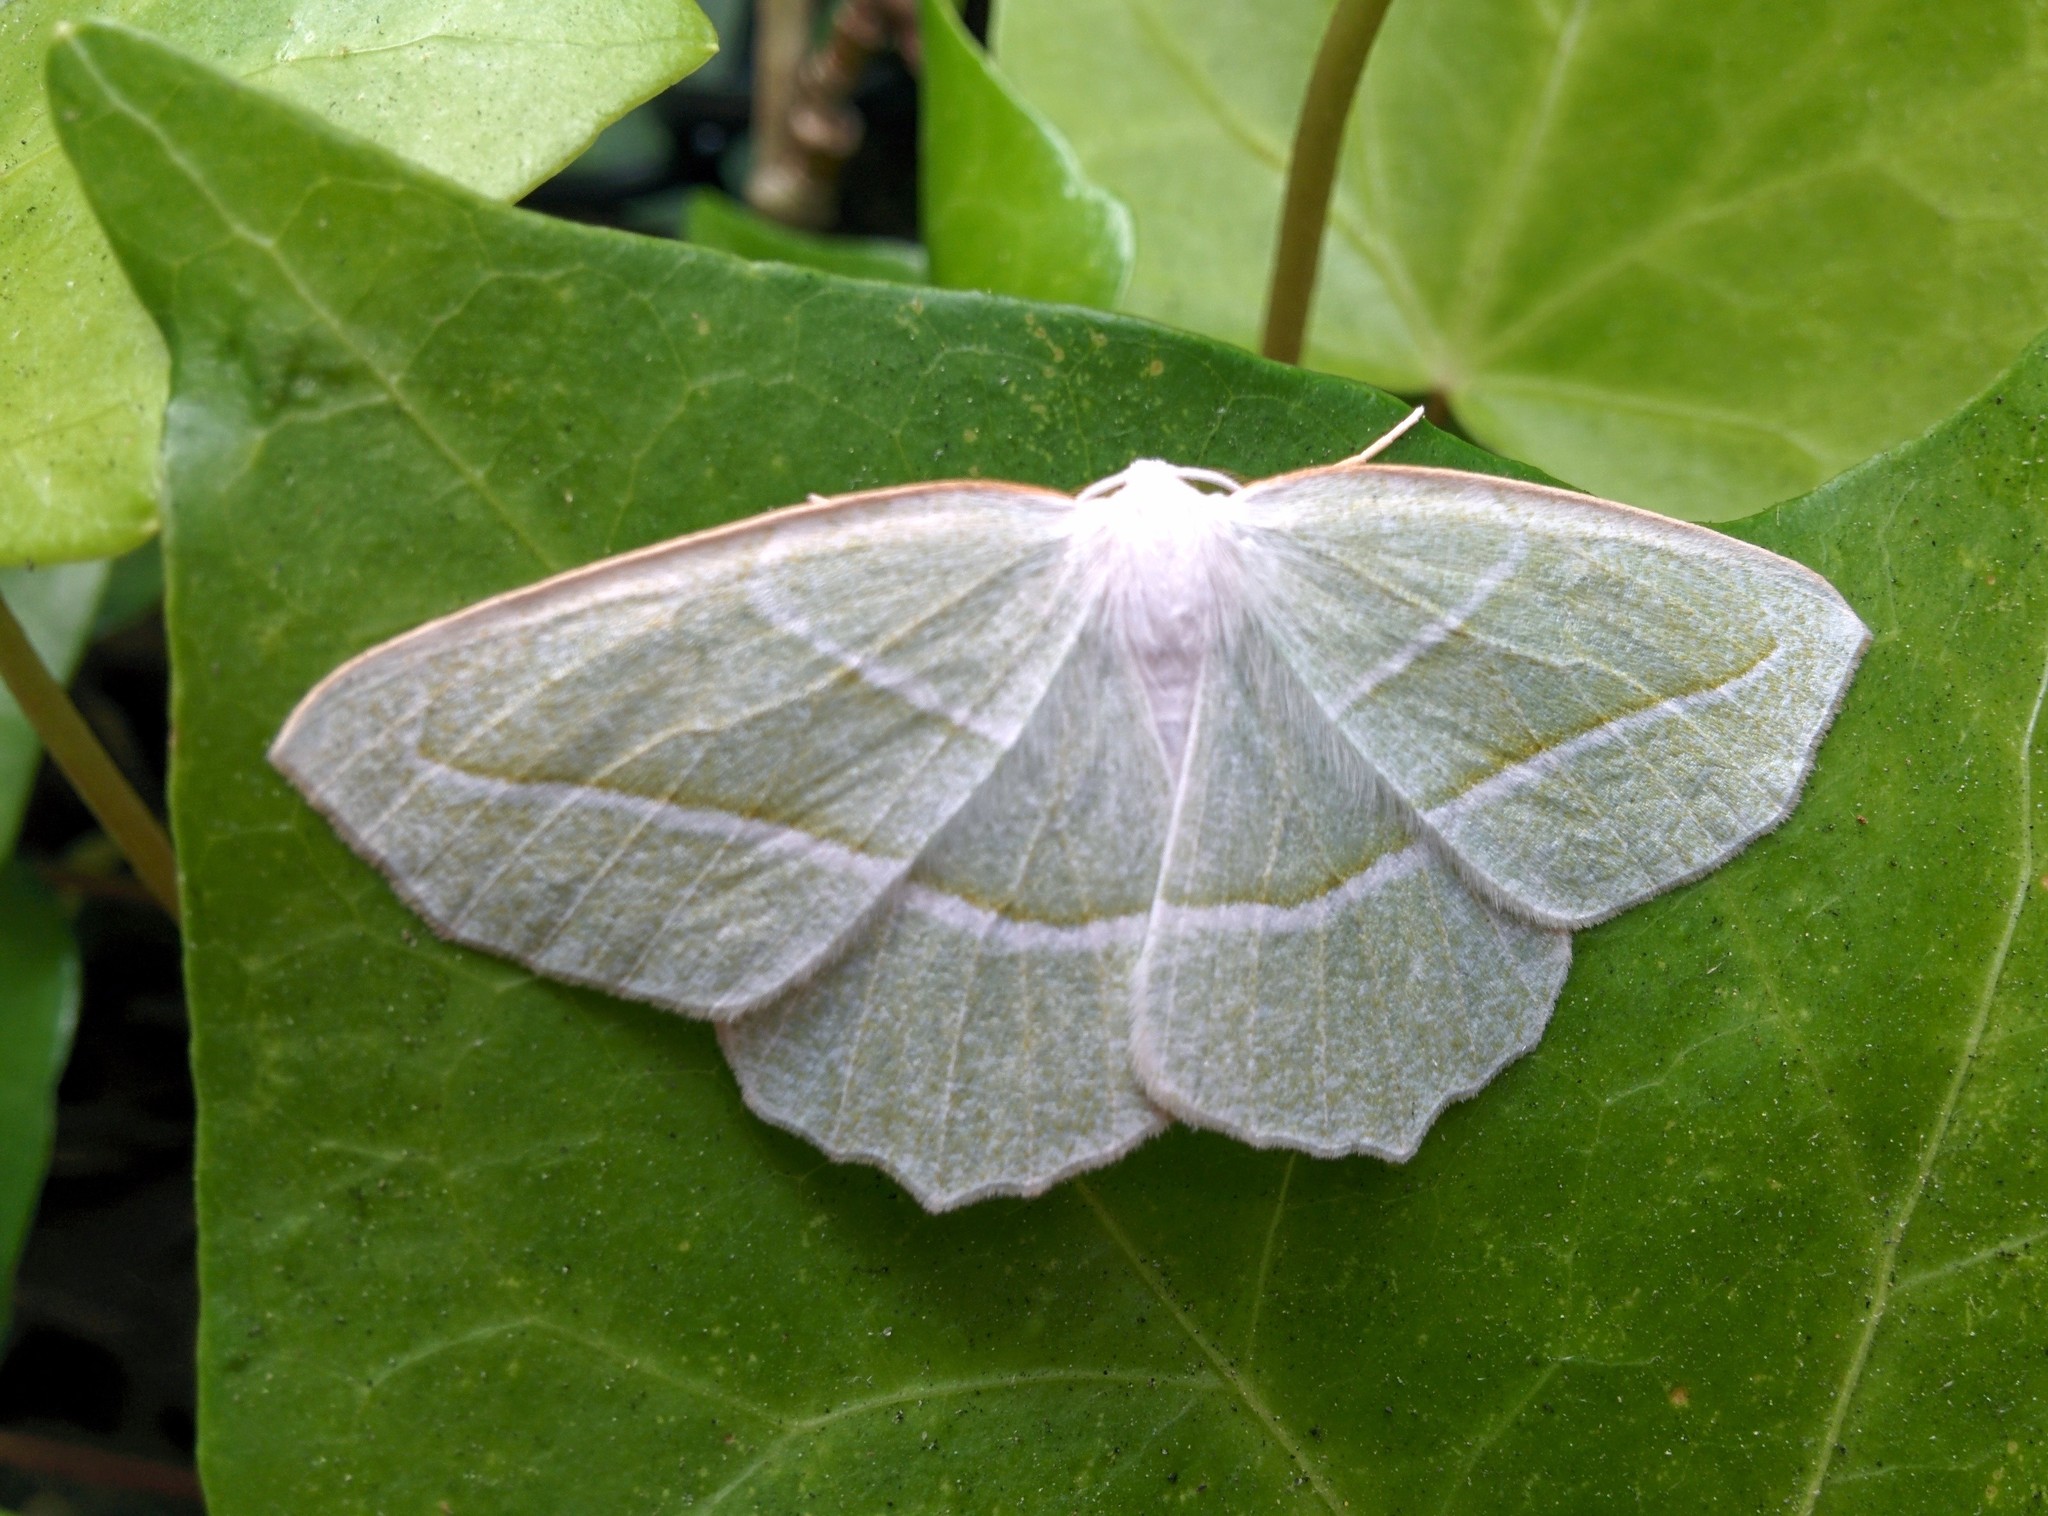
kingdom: Animalia
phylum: Arthropoda
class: Insecta
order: Lepidoptera
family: Geometridae
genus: Campaea
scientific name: Campaea perlata
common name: Fringed looper
